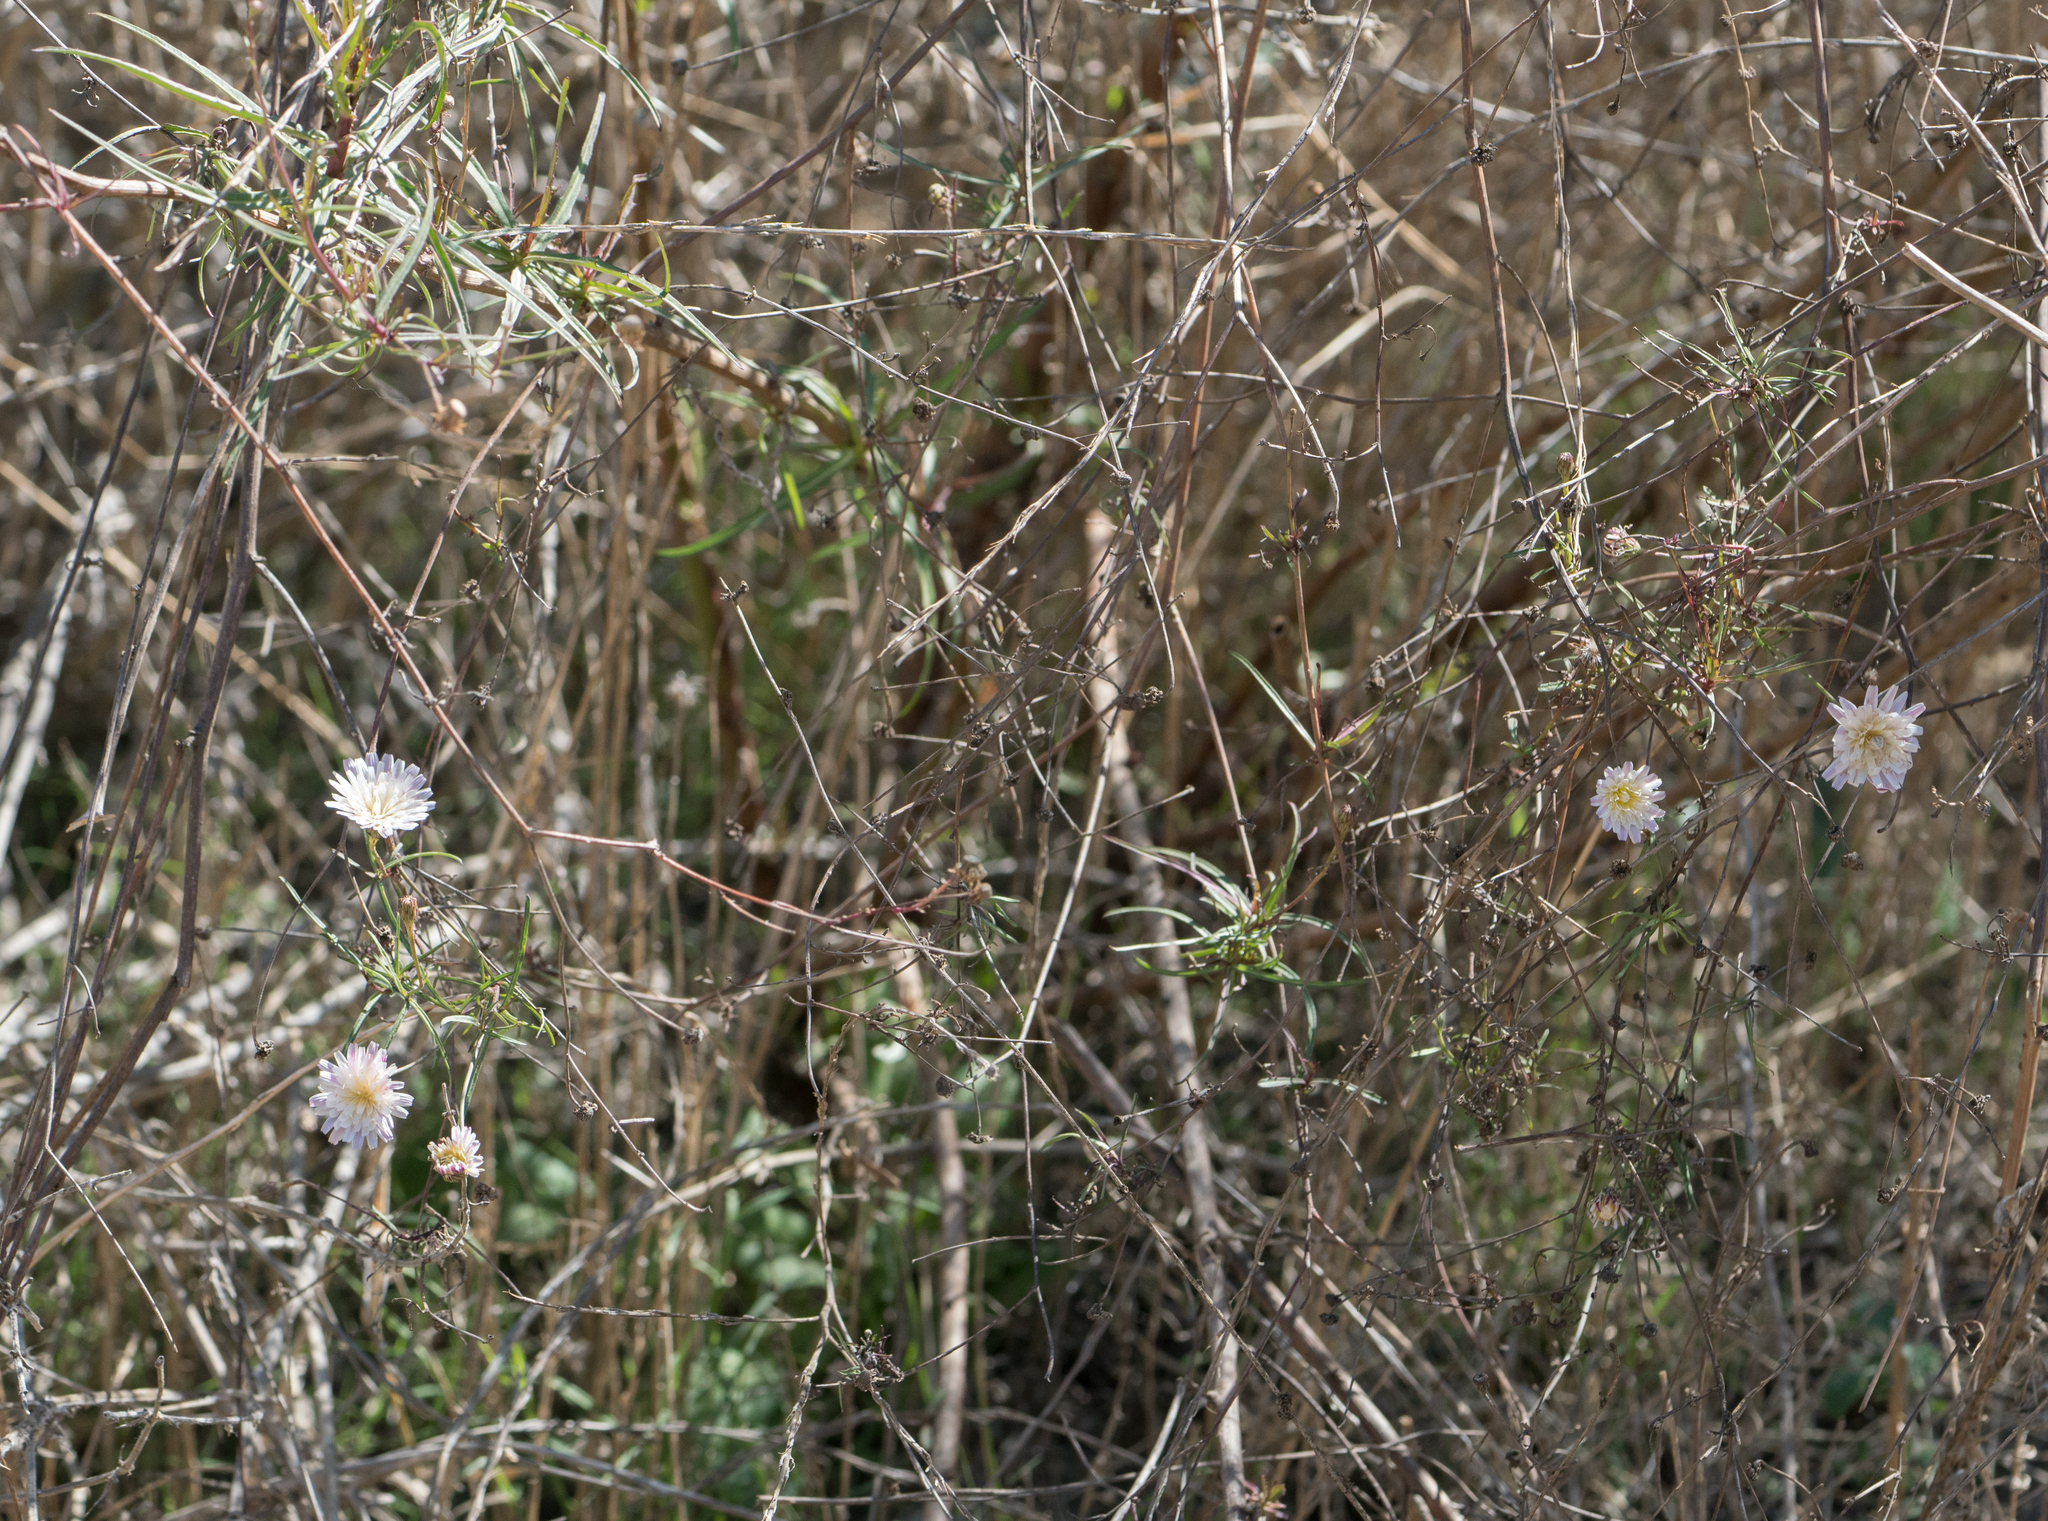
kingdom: Plantae
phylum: Tracheophyta
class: Magnoliopsida
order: Asterales
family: Asteraceae
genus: Malacothrix
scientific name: Malacothrix saxatilis
